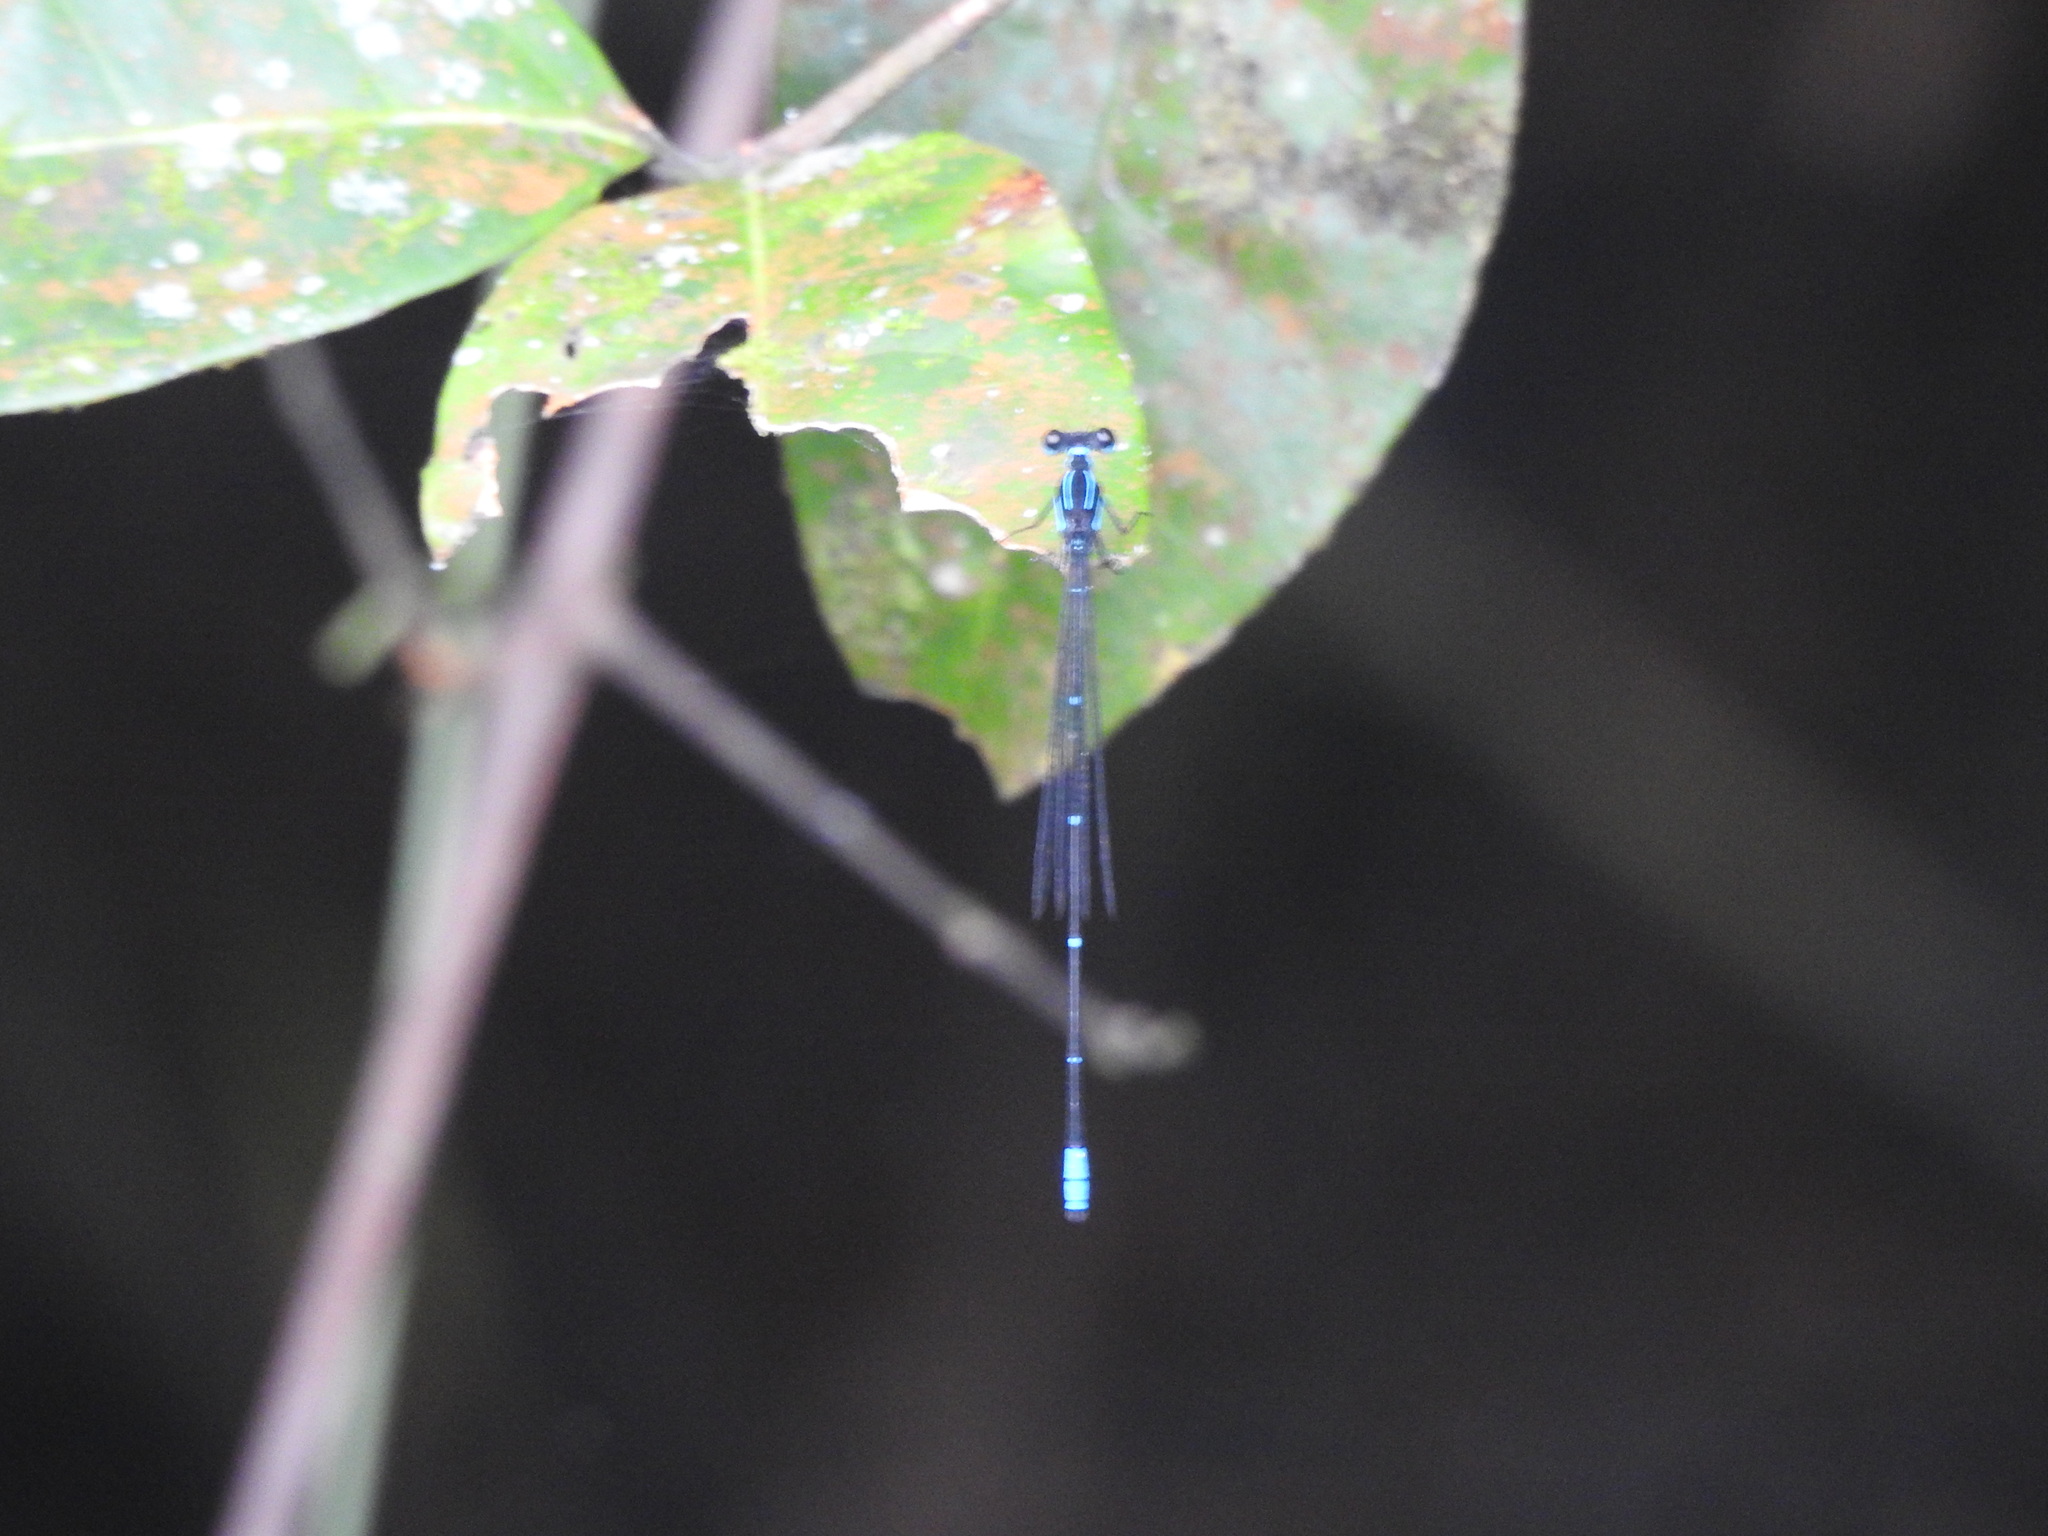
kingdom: Animalia
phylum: Arthropoda
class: Insecta
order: Odonata
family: Platycnemididae
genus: Caconeura
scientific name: Caconeura ramburi
